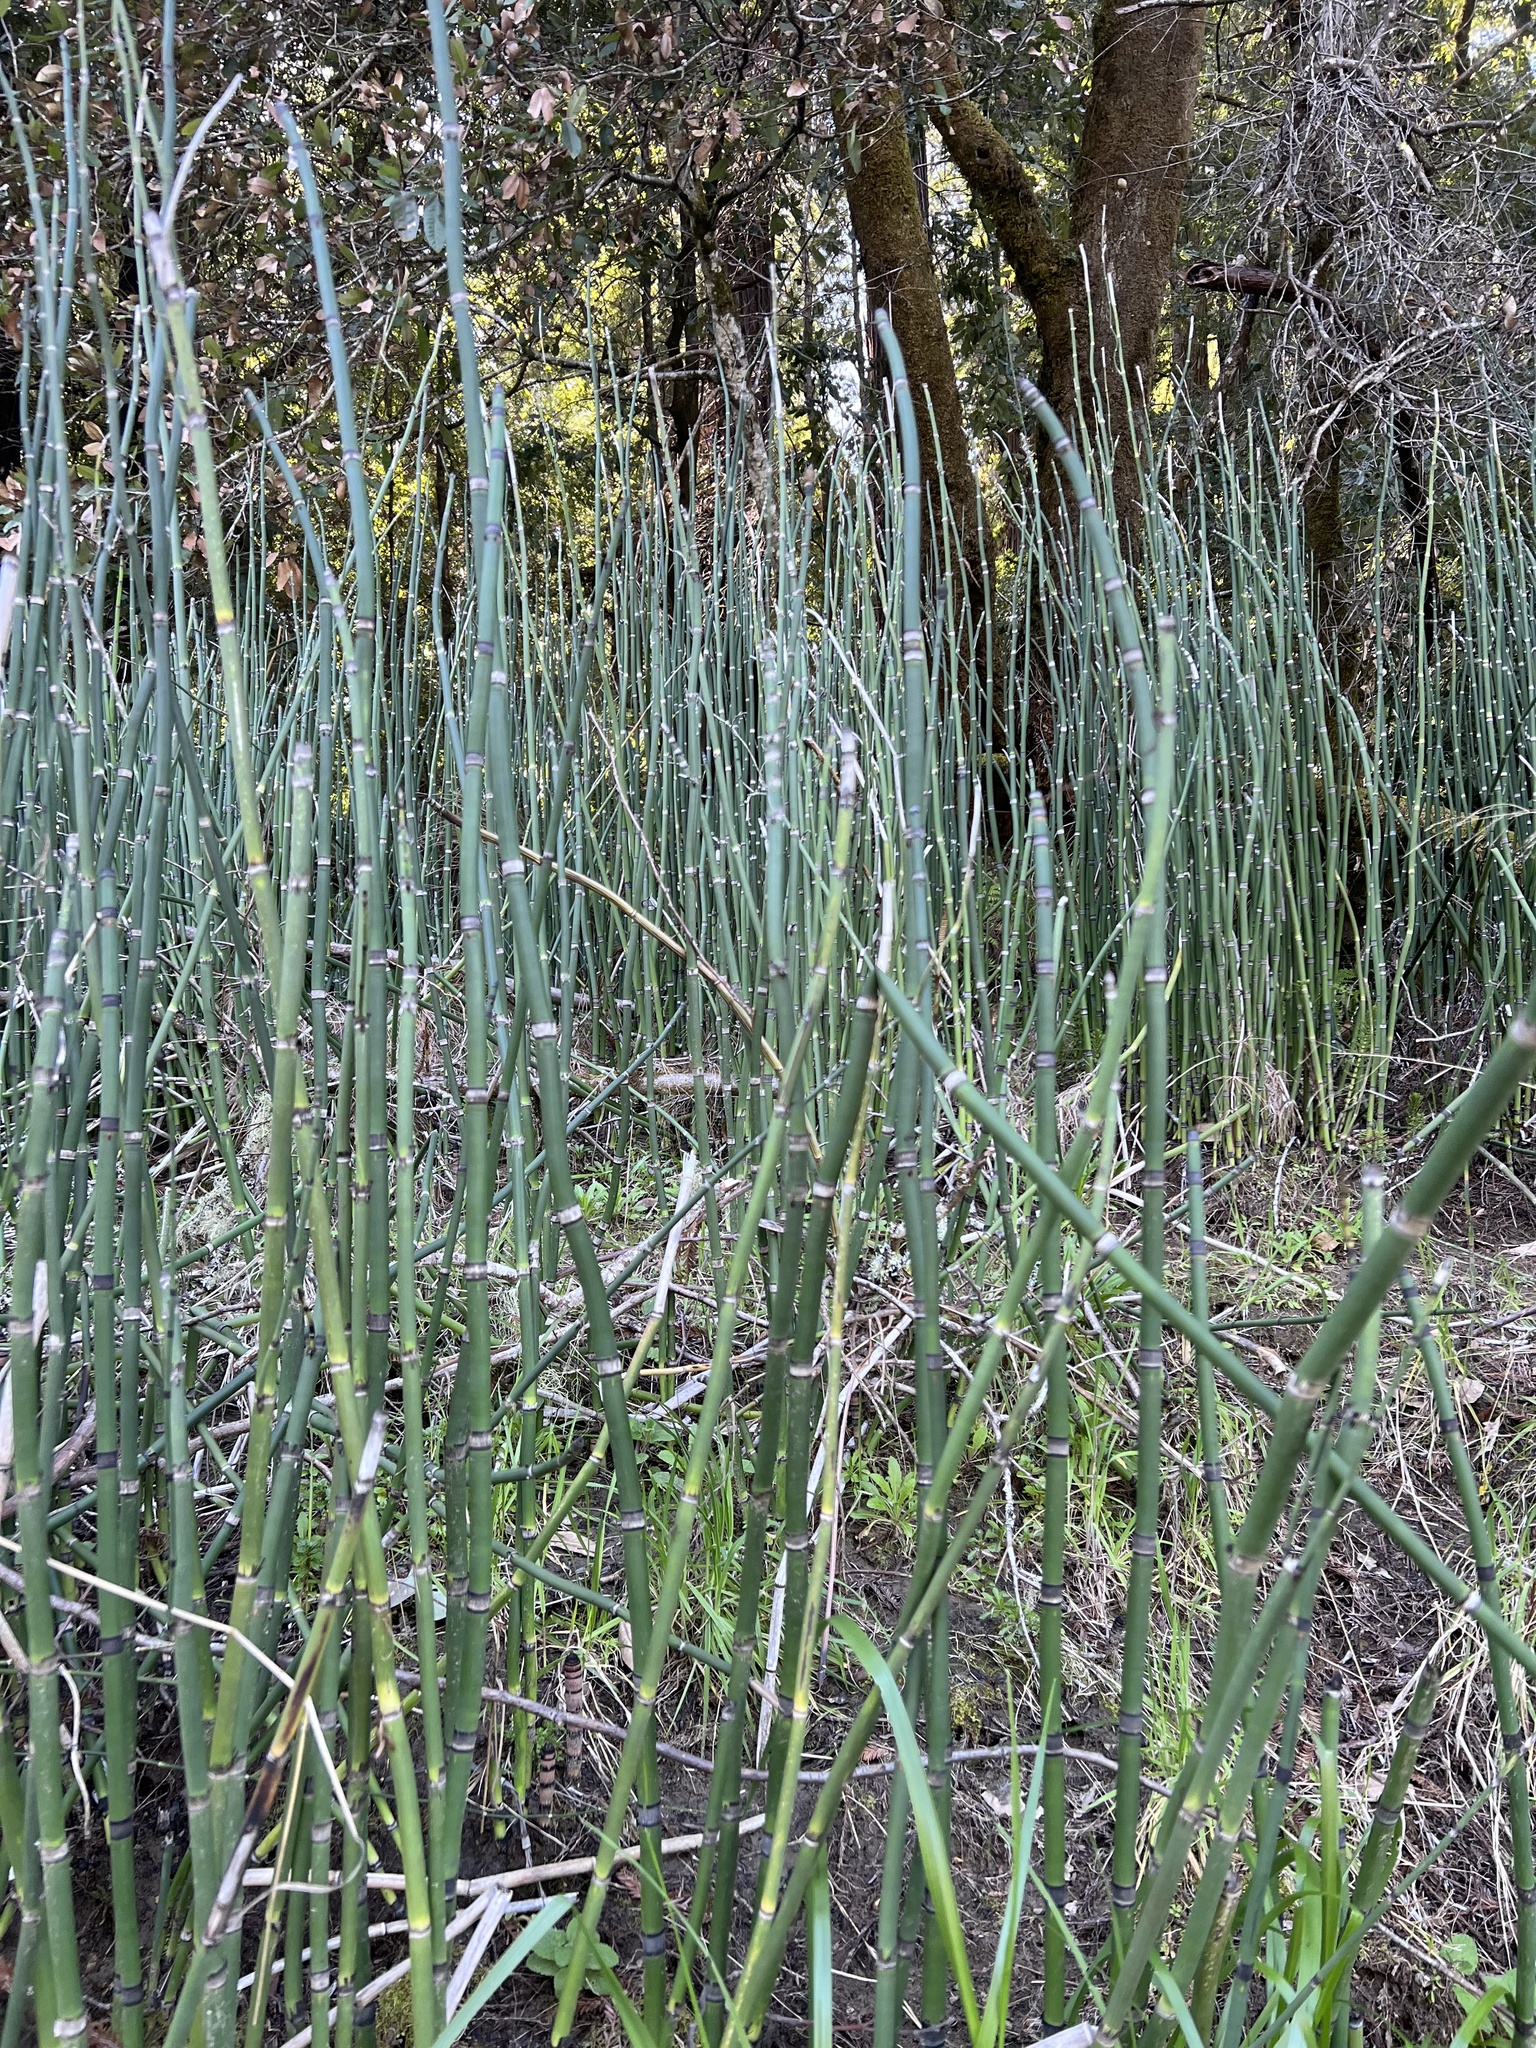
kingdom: Plantae
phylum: Tracheophyta
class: Polypodiopsida
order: Equisetales
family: Equisetaceae
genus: Equisetum
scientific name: Equisetum praealtum
